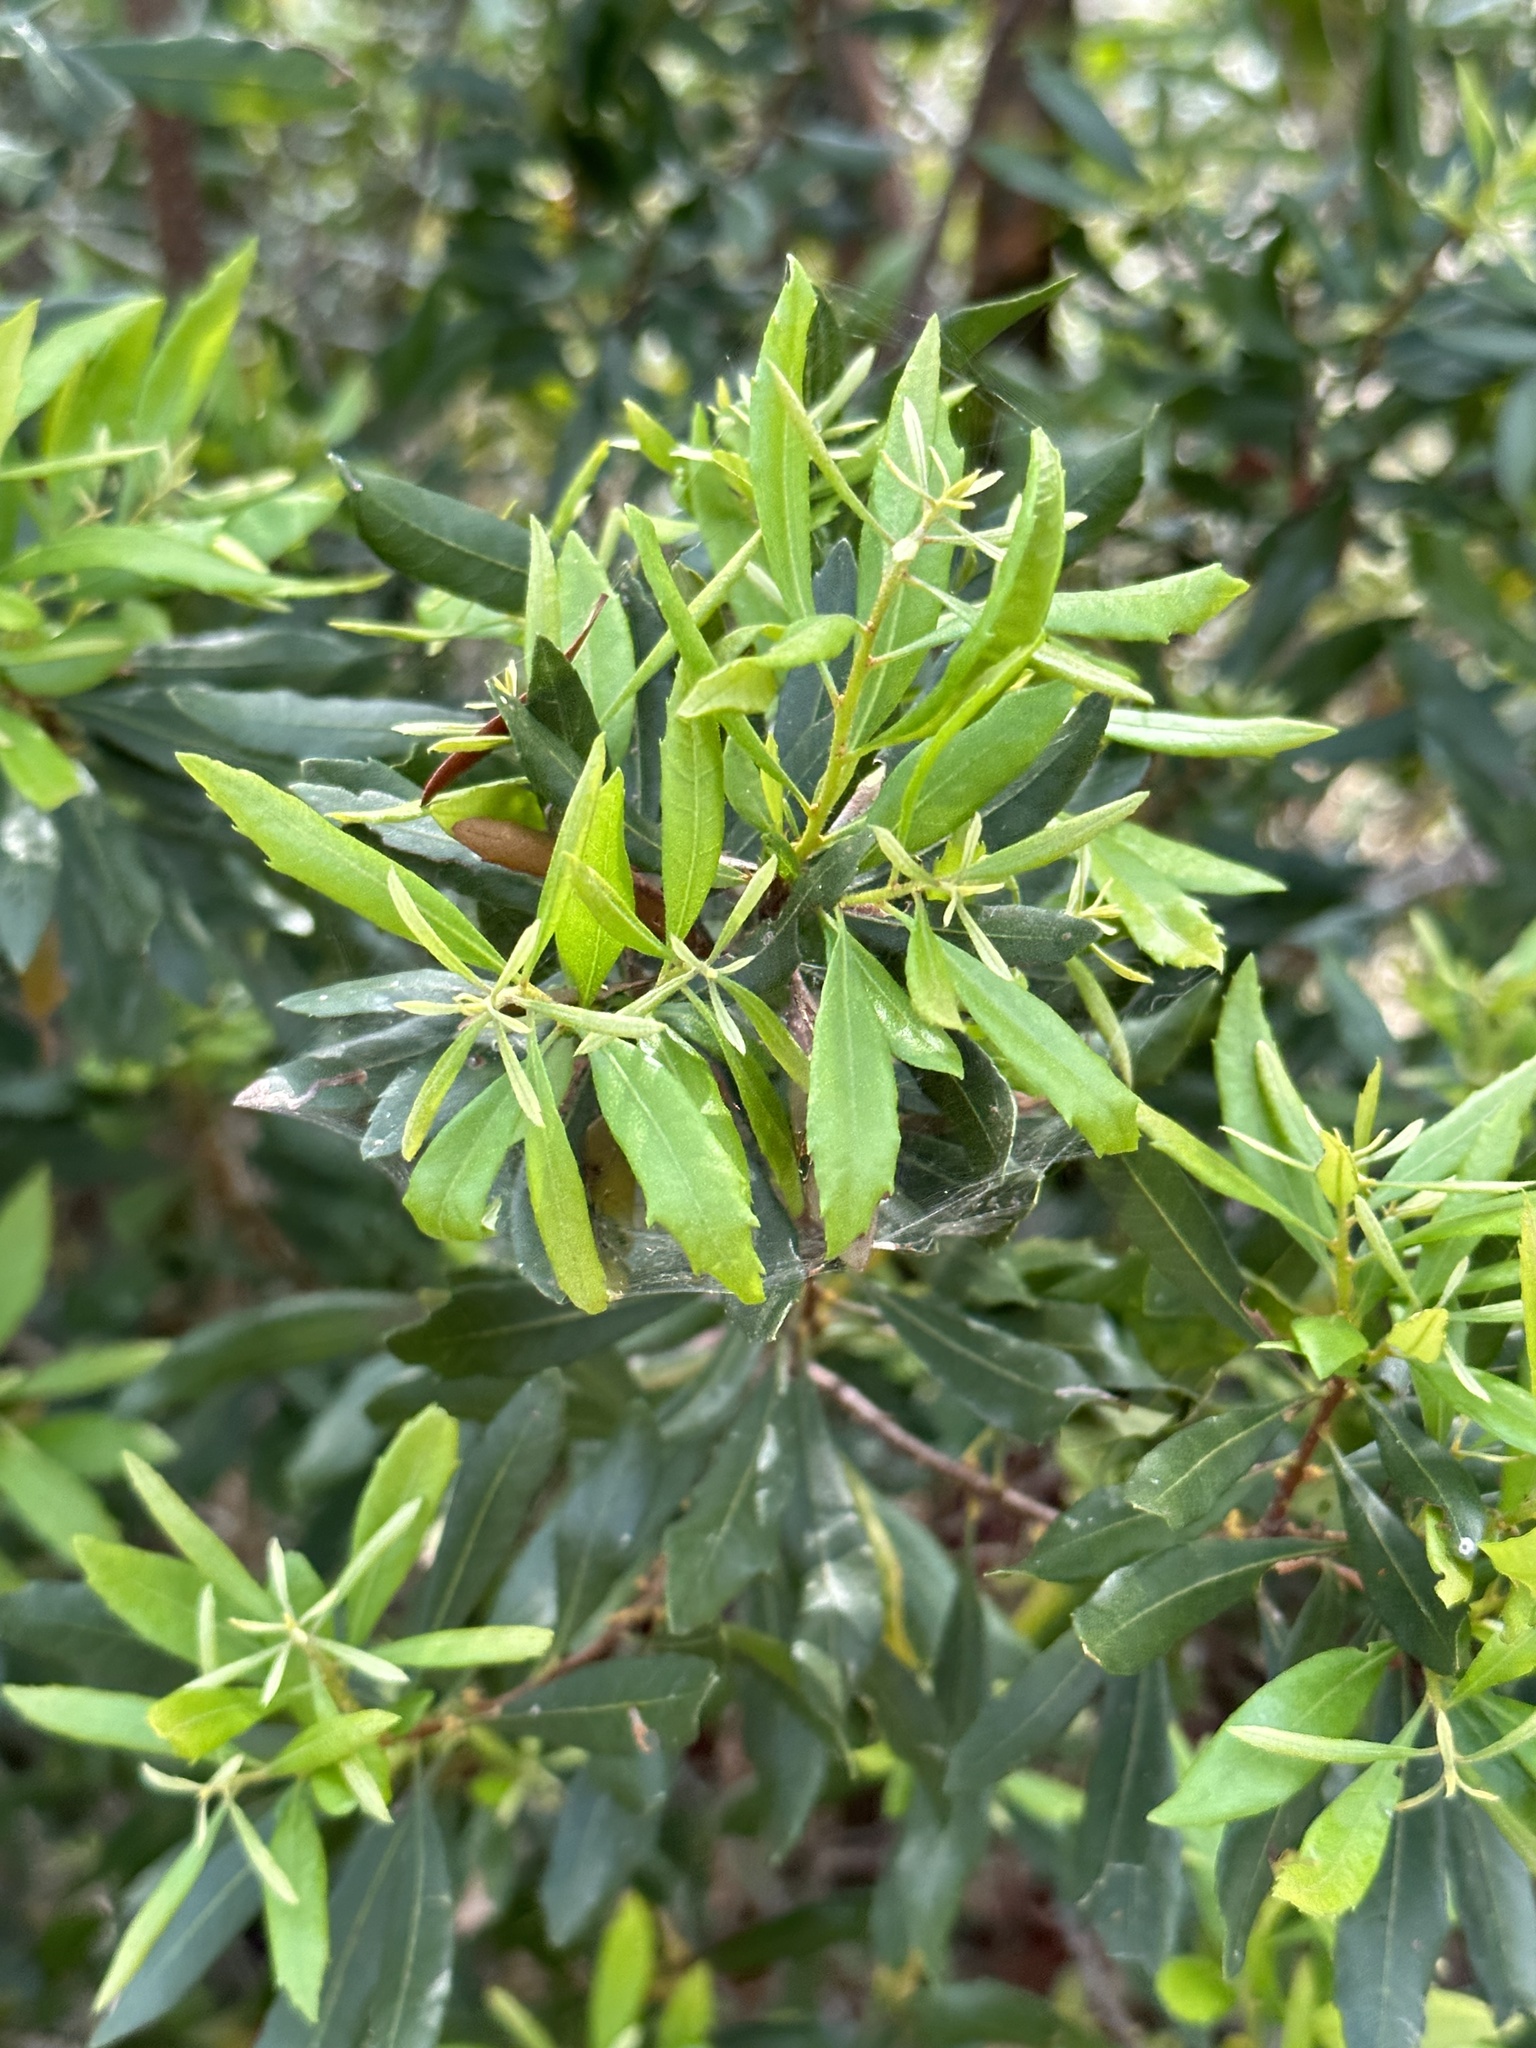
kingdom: Plantae
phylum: Tracheophyta
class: Magnoliopsida
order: Fagales
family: Myricaceae
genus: Morella
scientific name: Morella cerifera
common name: Wax myrtle
